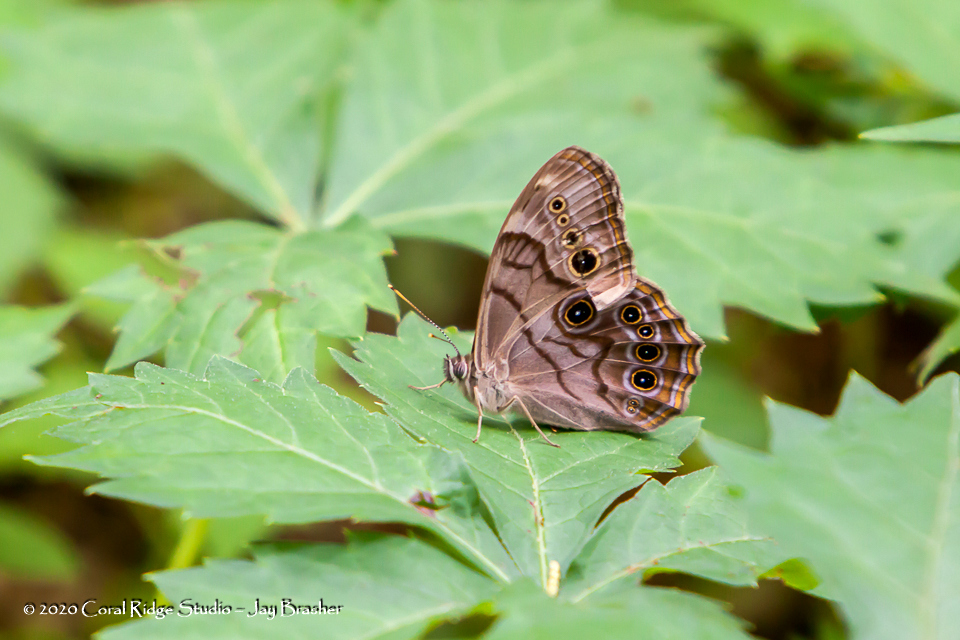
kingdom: Animalia
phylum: Arthropoda
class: Insecta
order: Lepidoptera
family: Nymphalidae
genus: Lethe
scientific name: Lethe anthedon
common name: Northern pearly-eye
